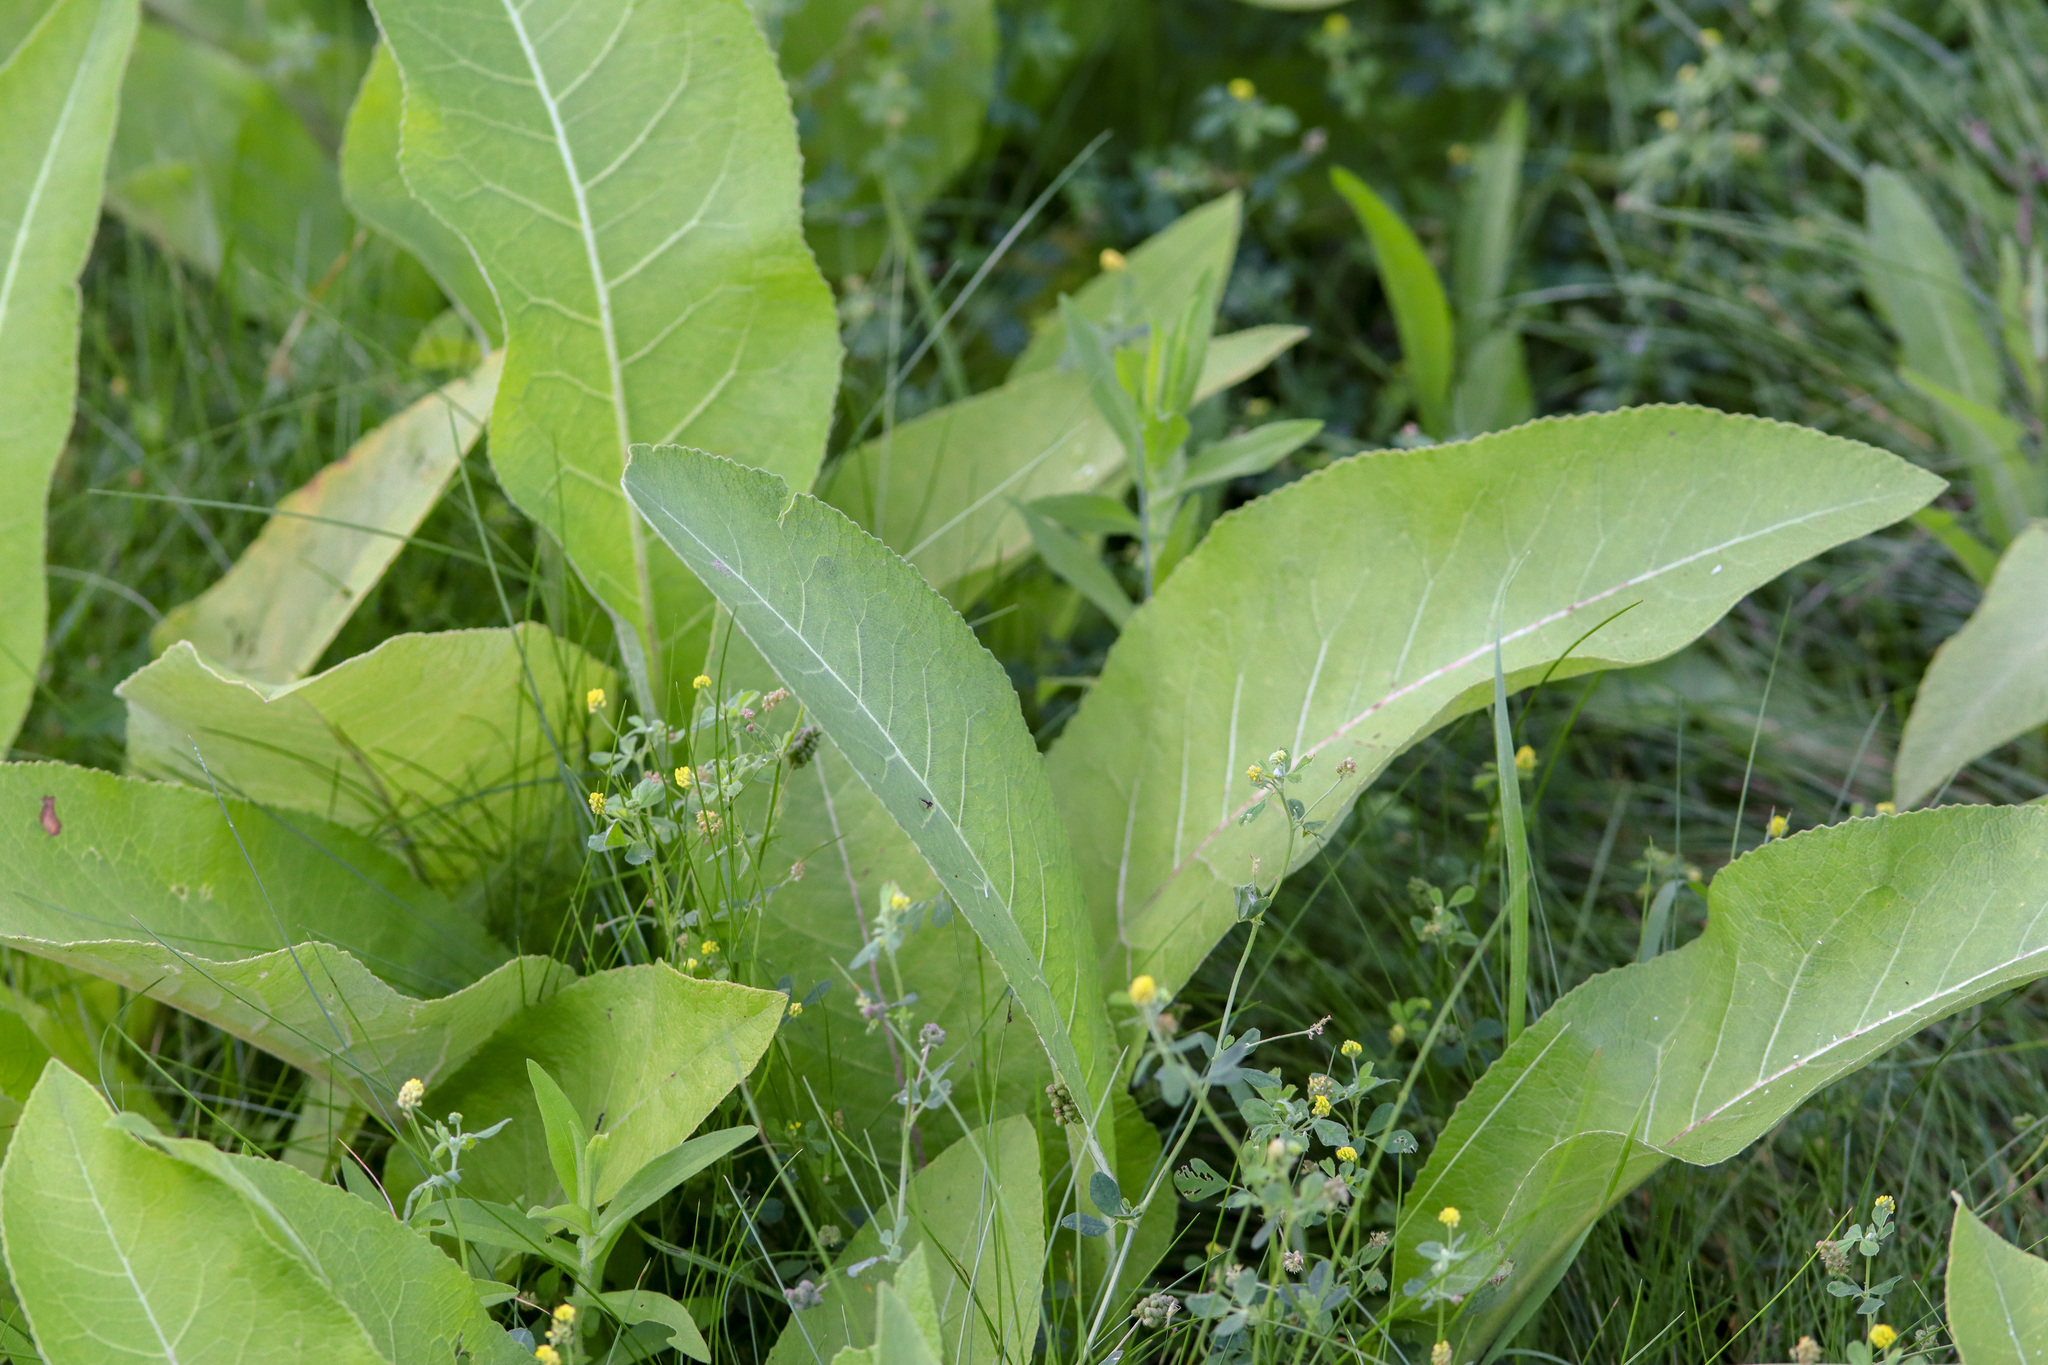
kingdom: Plantae
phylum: Tracheophyta
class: Magnoliopsida
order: Asterales
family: Asteraceae
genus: Inula
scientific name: Inula helenium
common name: Elecampane
